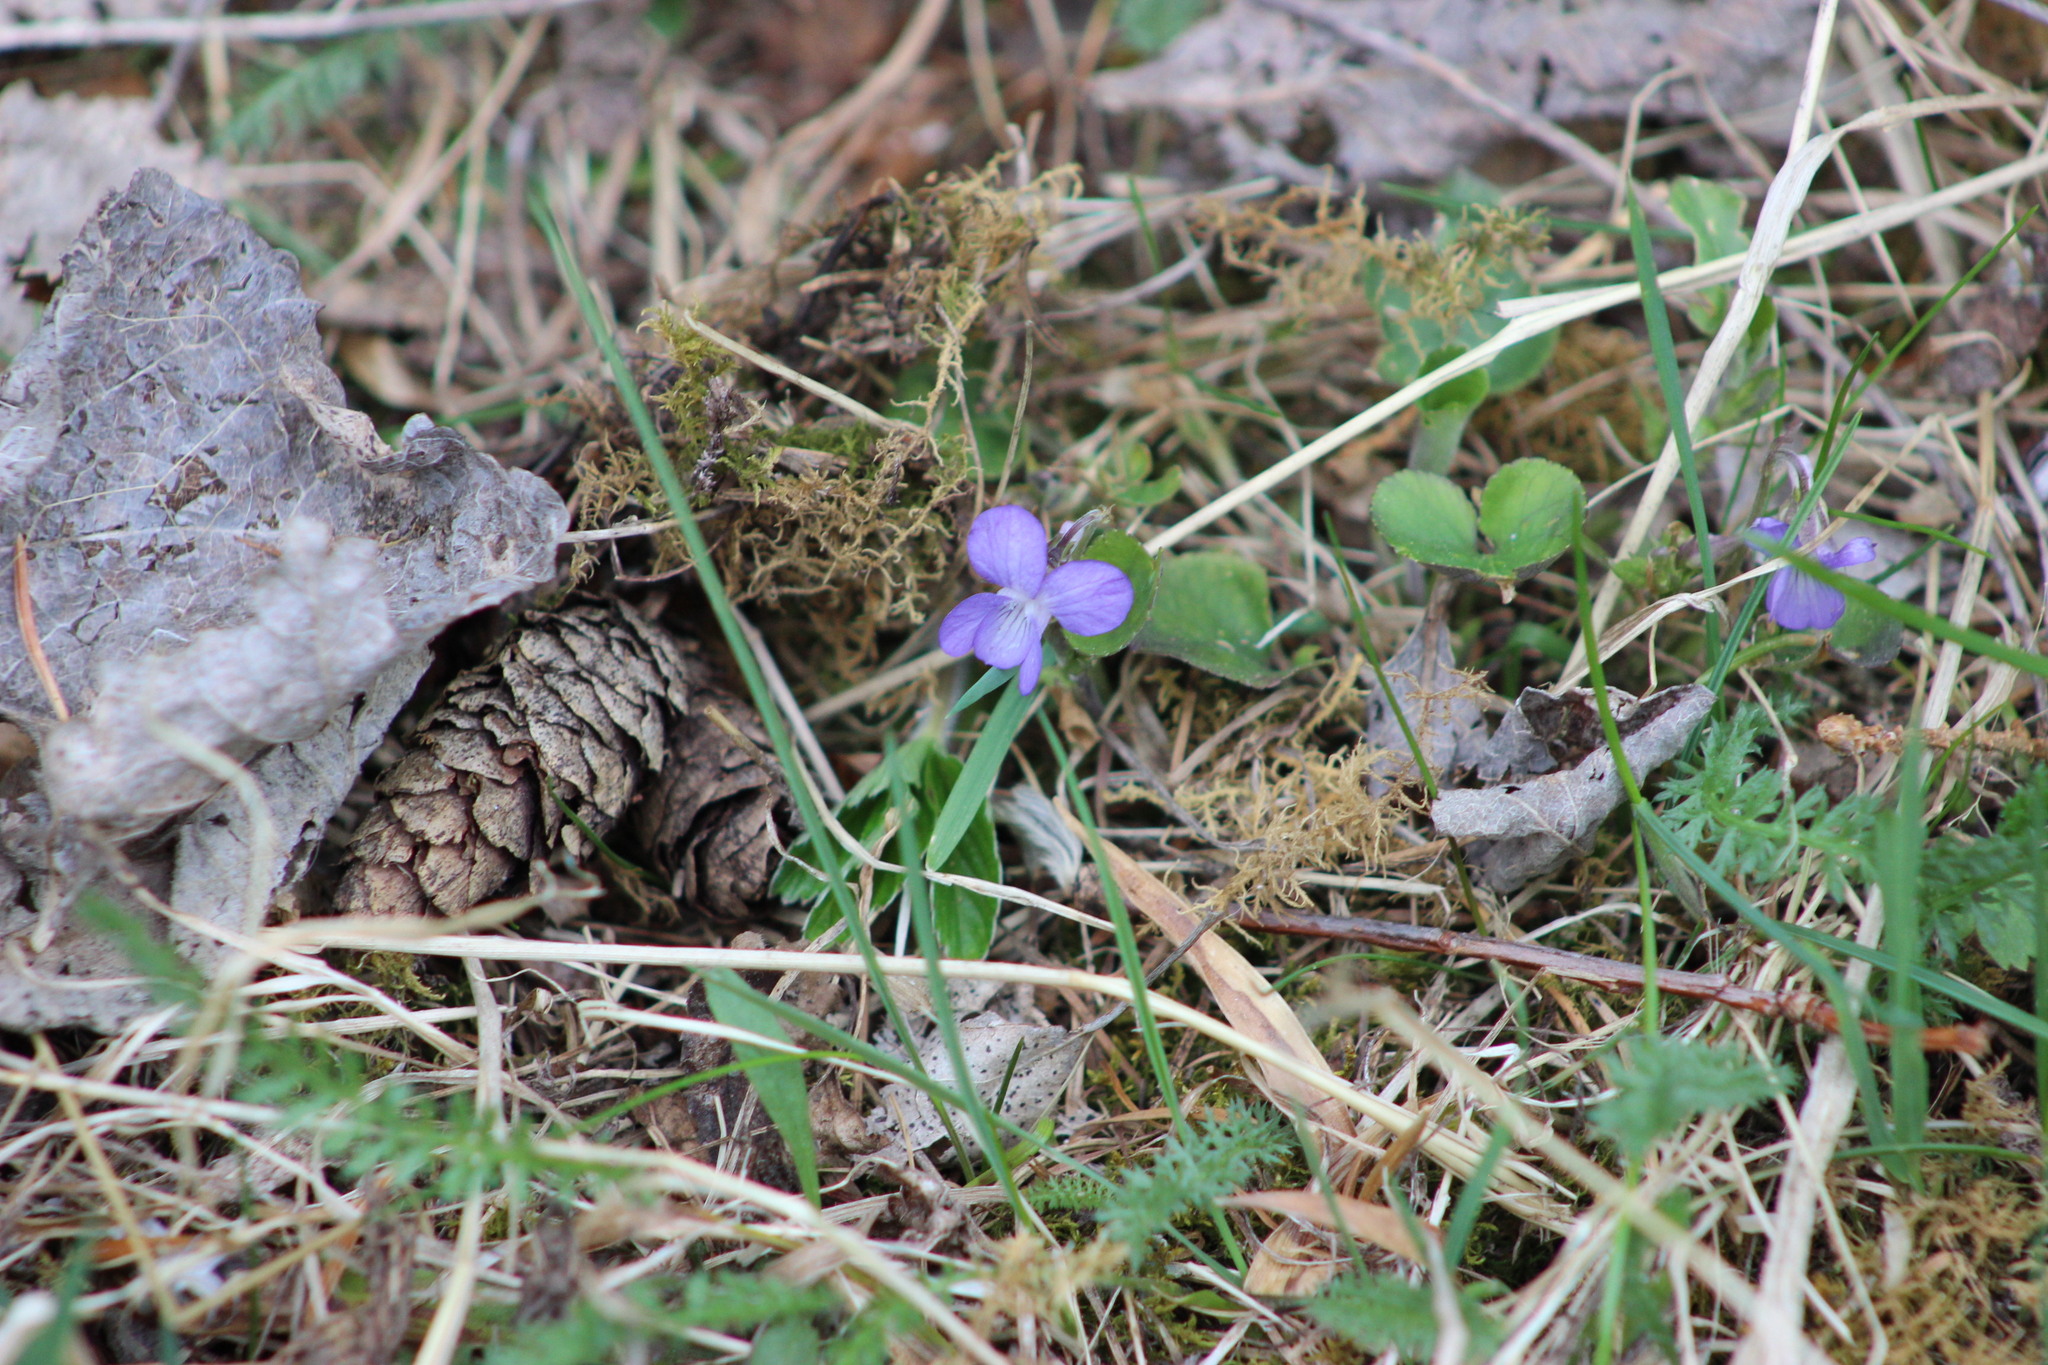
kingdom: Plantae
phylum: Tracheophyta
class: Magnoliopsida
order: Malpighiales
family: Violaceae
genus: Viola
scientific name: Viola rupestris
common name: Teesdale violet
